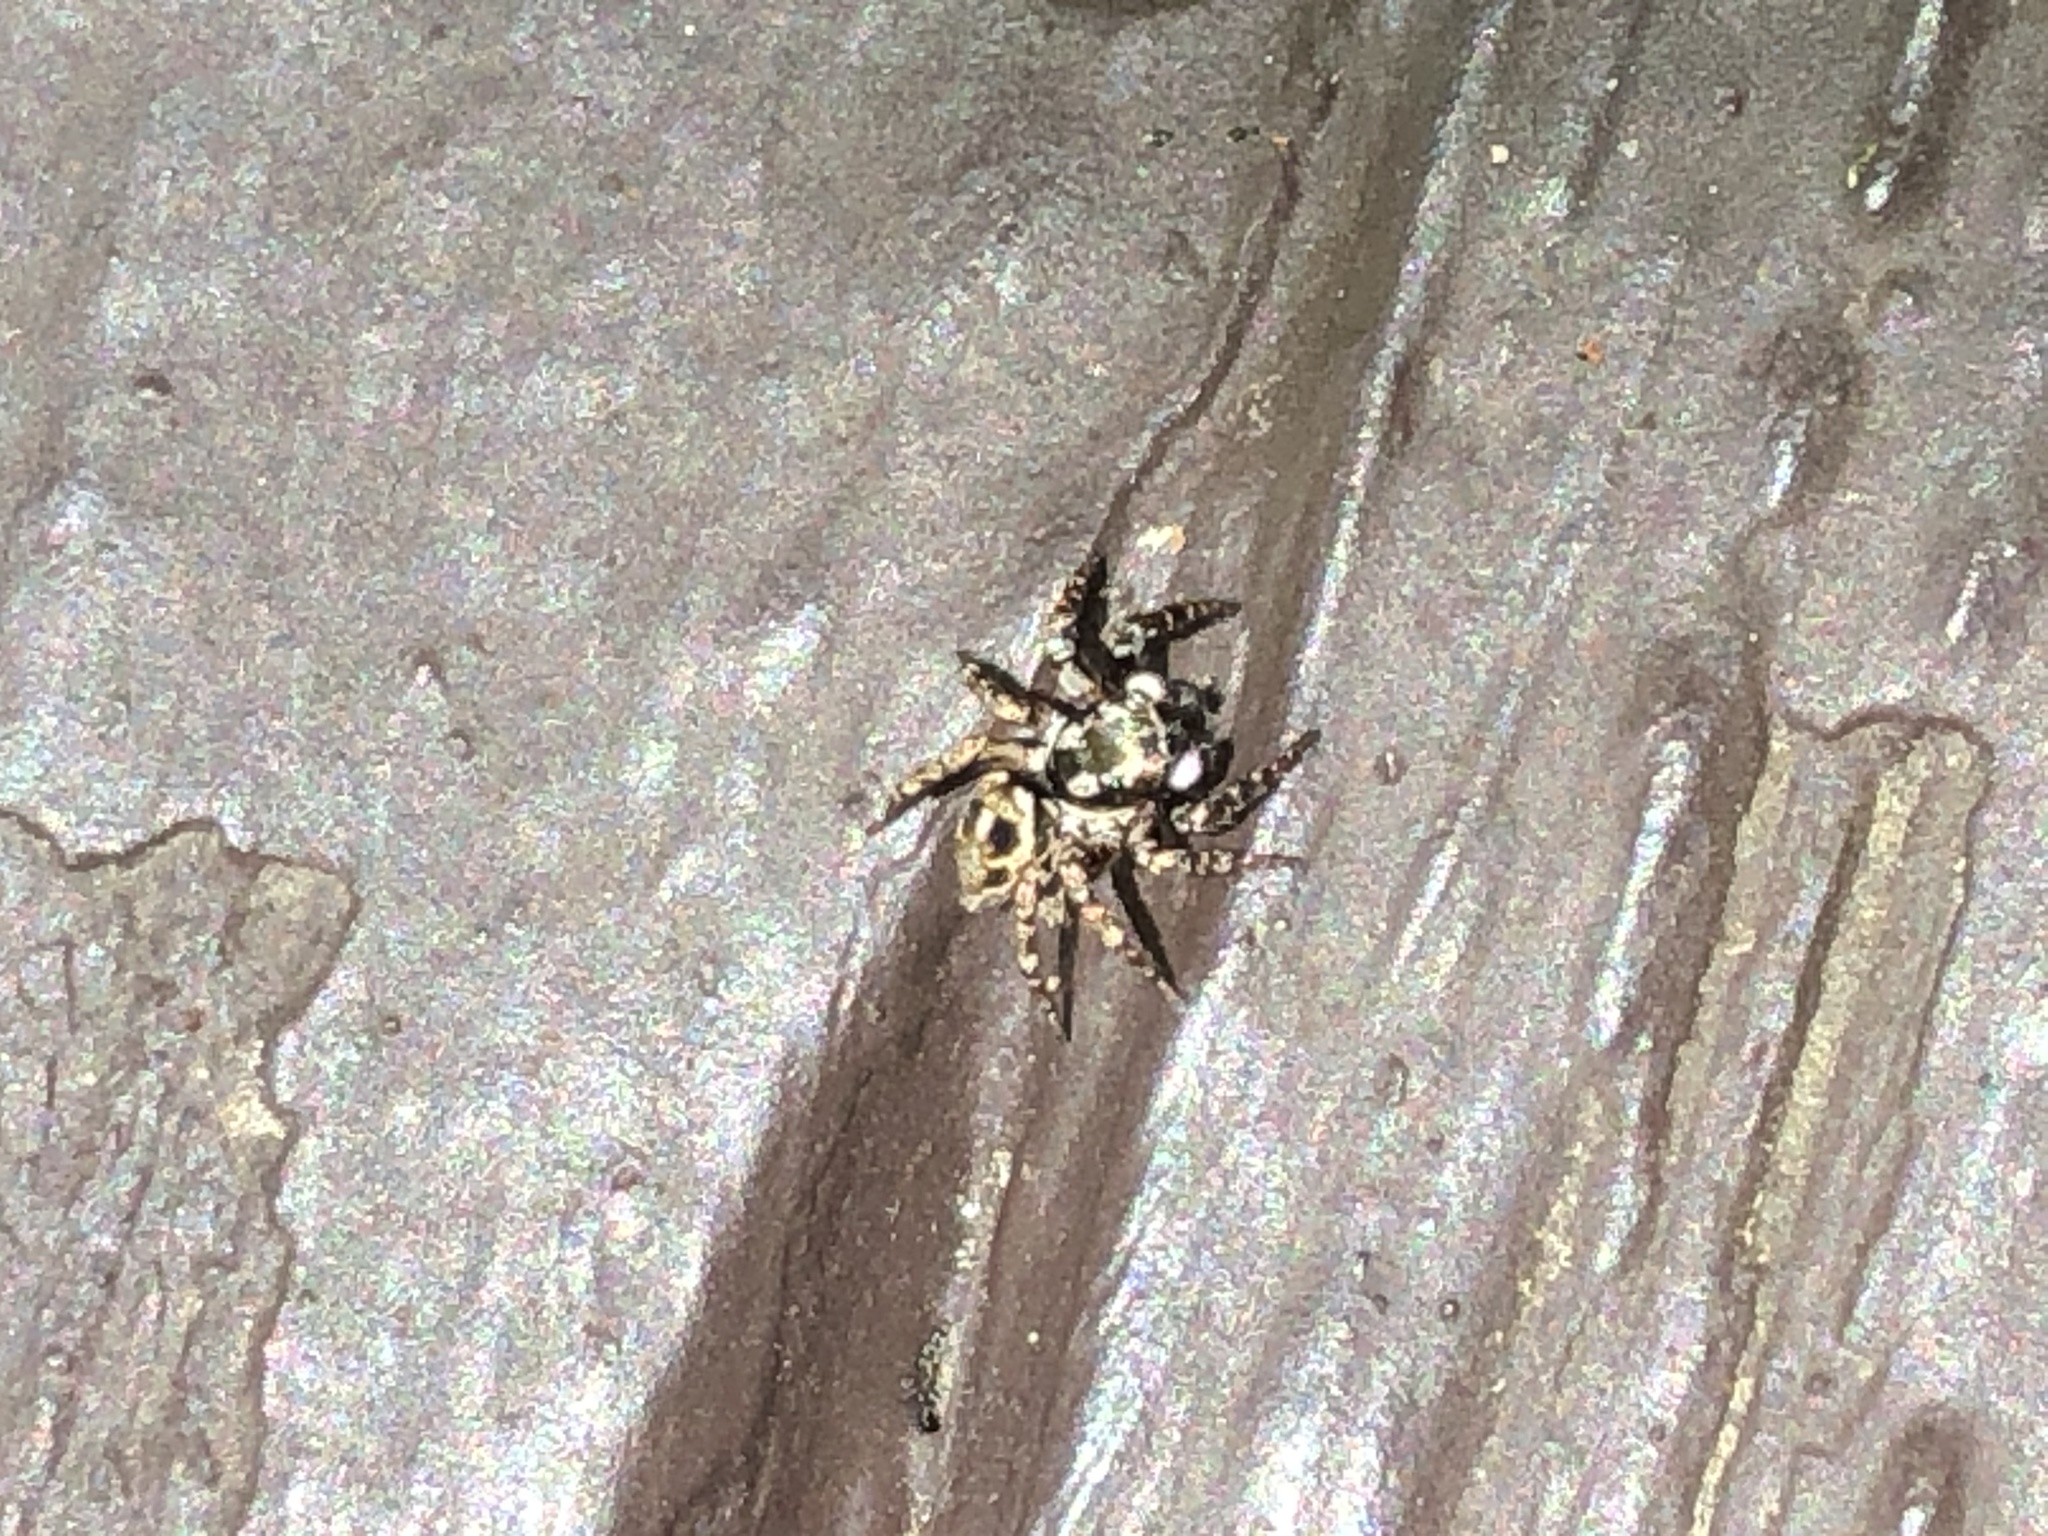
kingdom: Animalia
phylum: Arthropoda
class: Arachnida
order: Araneae
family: Salticidae
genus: Anasaitis
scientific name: Anasaitis canosa
